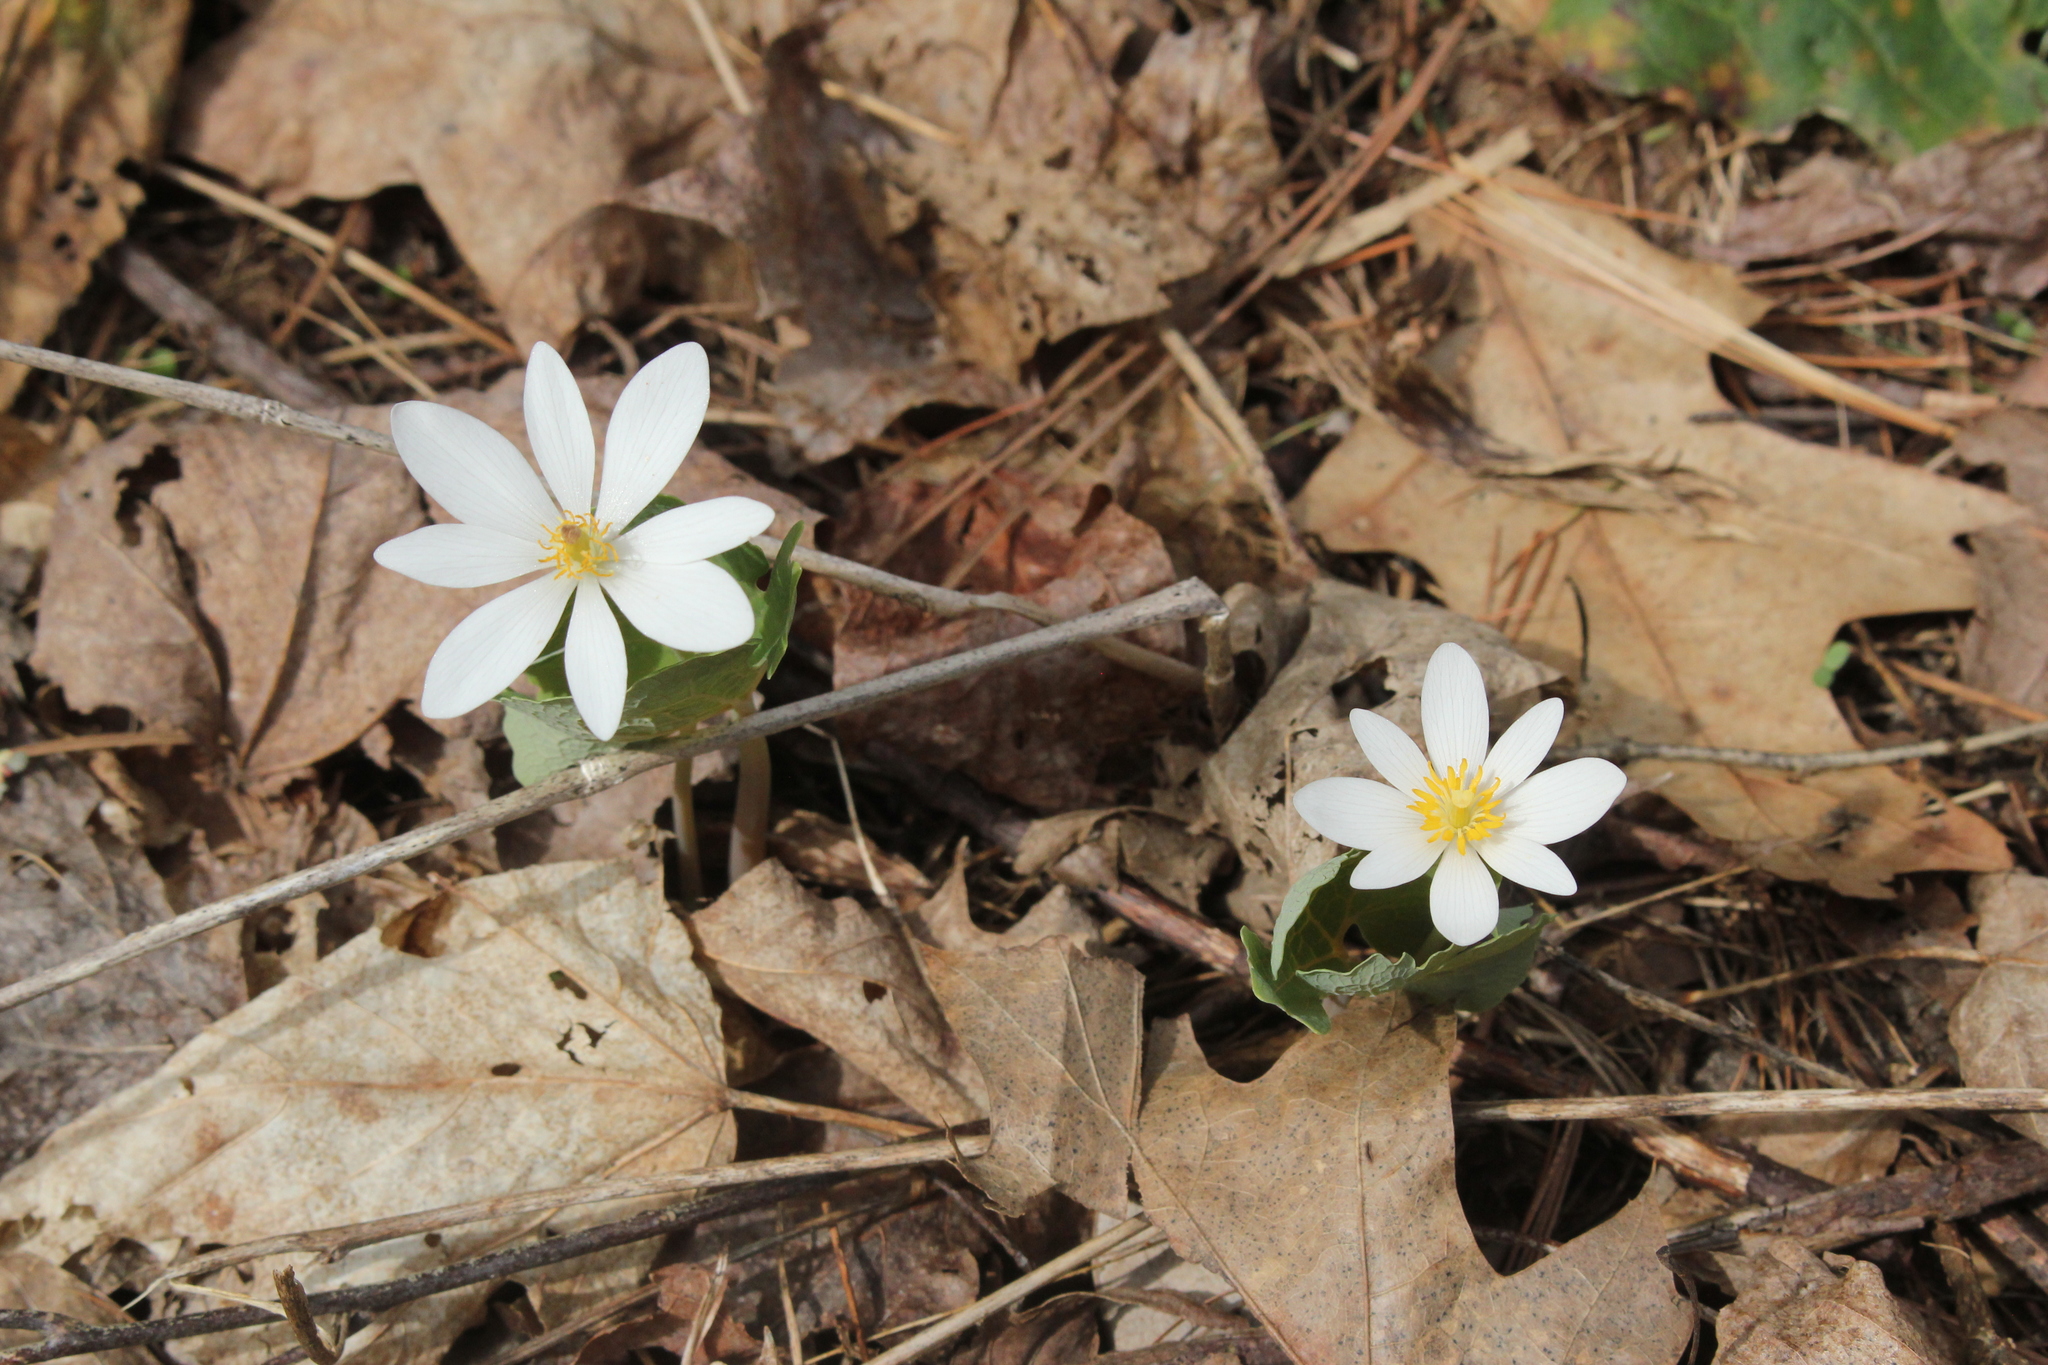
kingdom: Plantae
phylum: Tracheophyta
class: Magnoliopsida
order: Ranunculales
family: Papaveraceae
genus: Sanguinaria
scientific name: Sanguinaria canadensis
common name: Bloodroot
